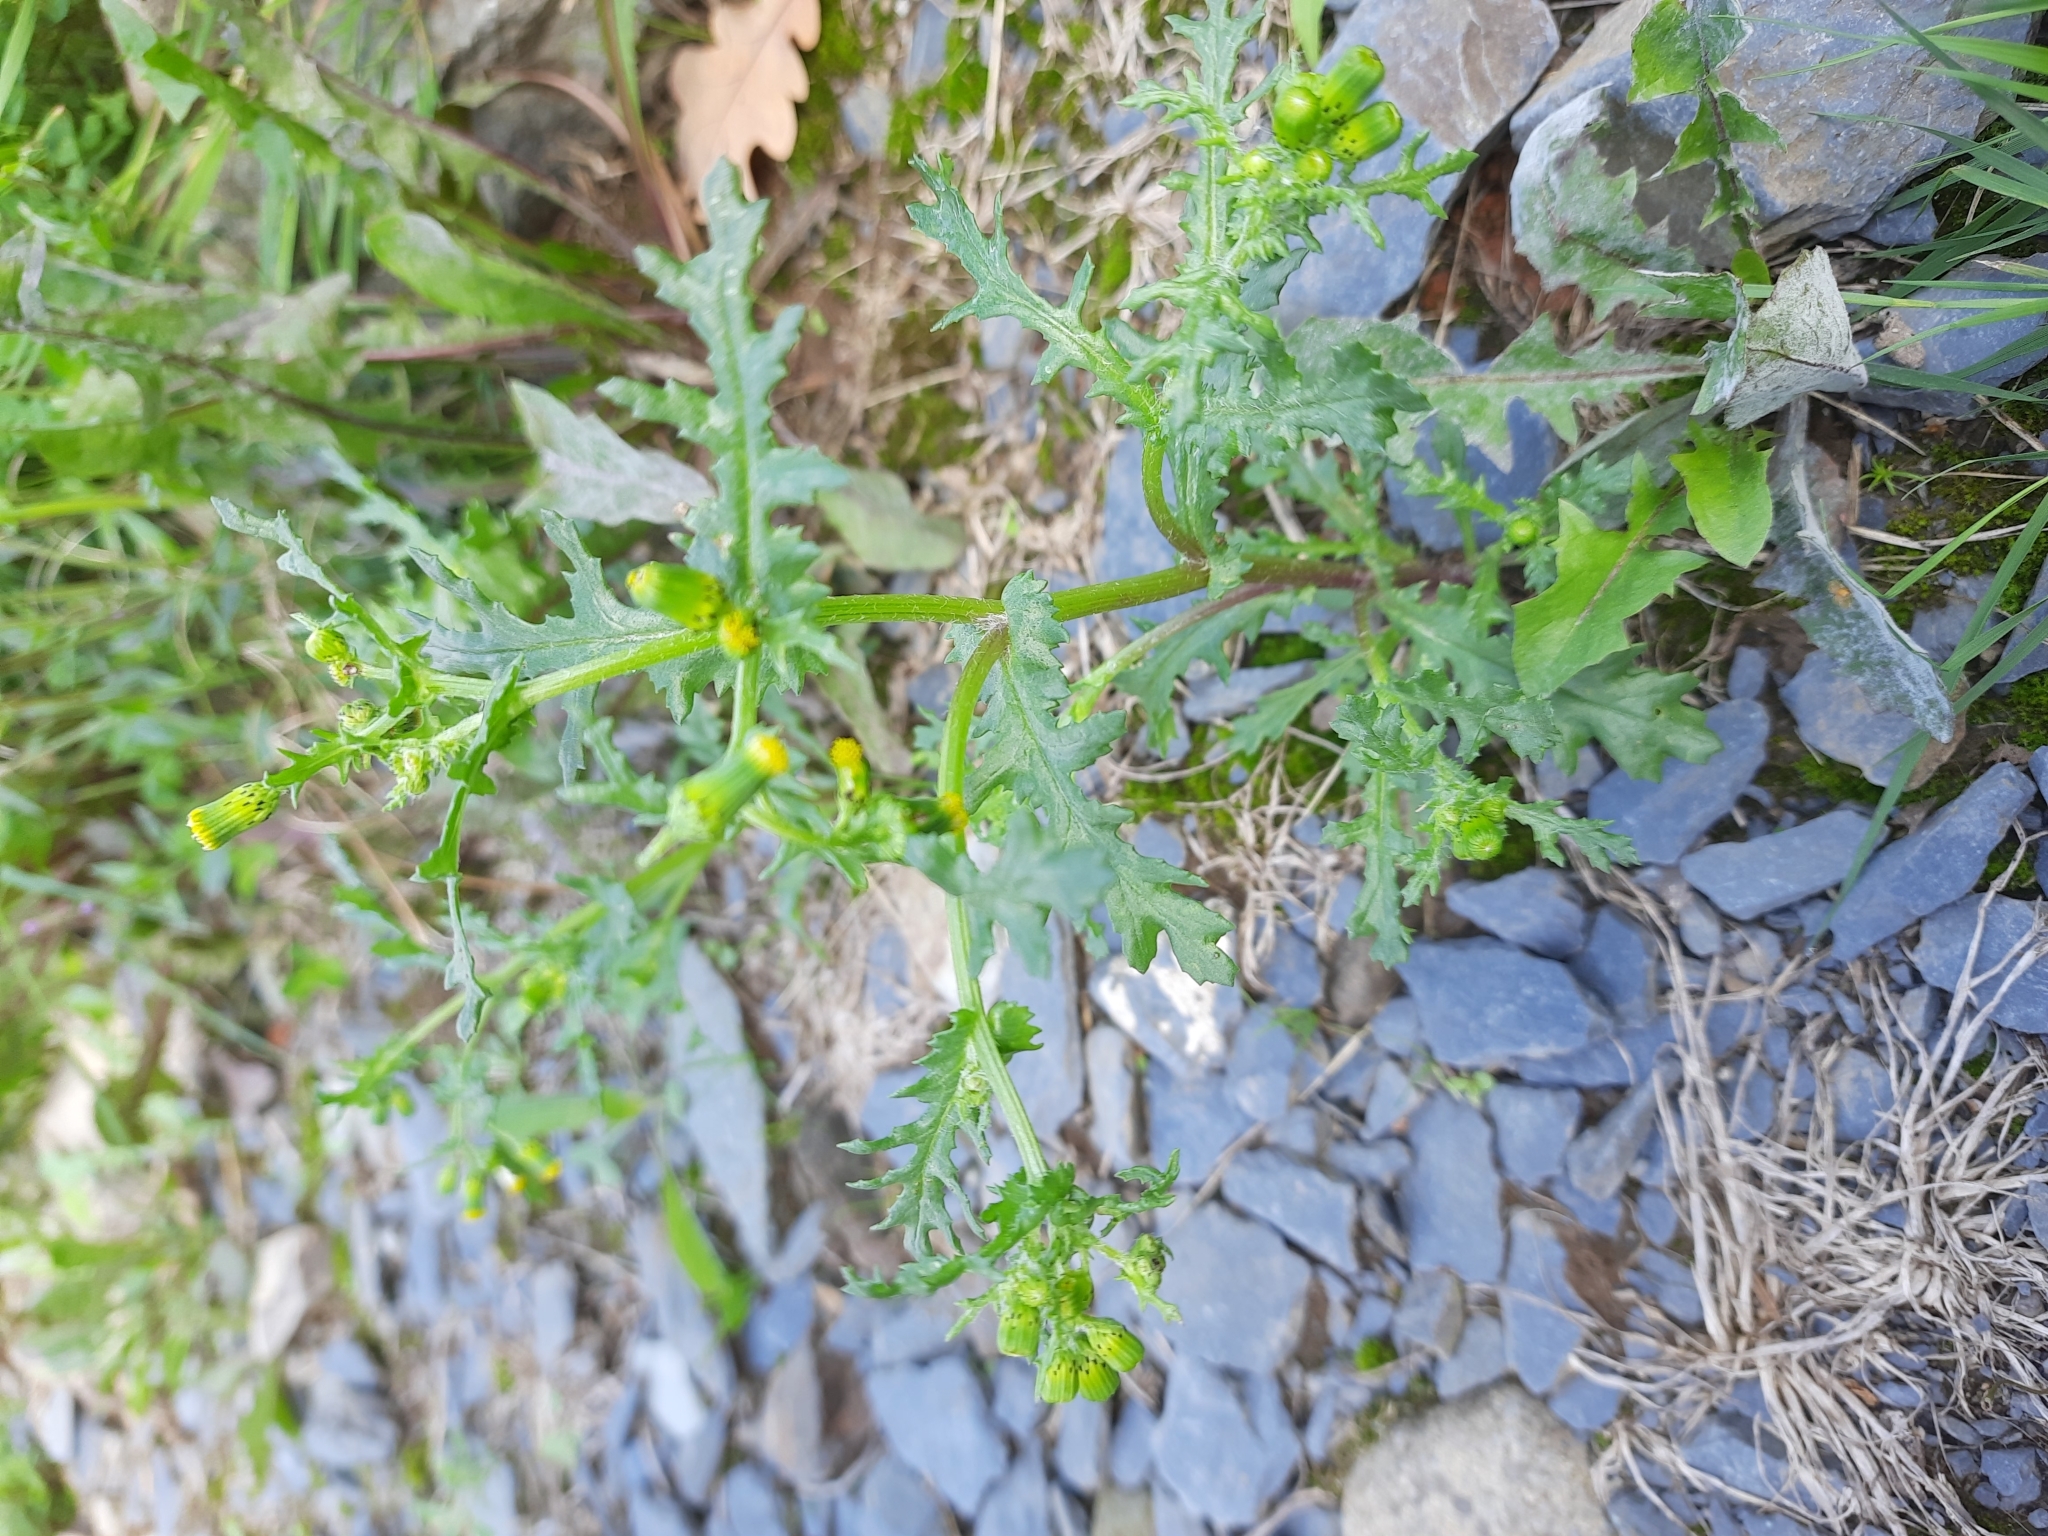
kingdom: Plantae
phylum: Tracheophyta
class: Magnoliopsida
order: Asterales
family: Asteraceae
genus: Senecio
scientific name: Senecio vulgaris
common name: Old-man-in-the-spring
